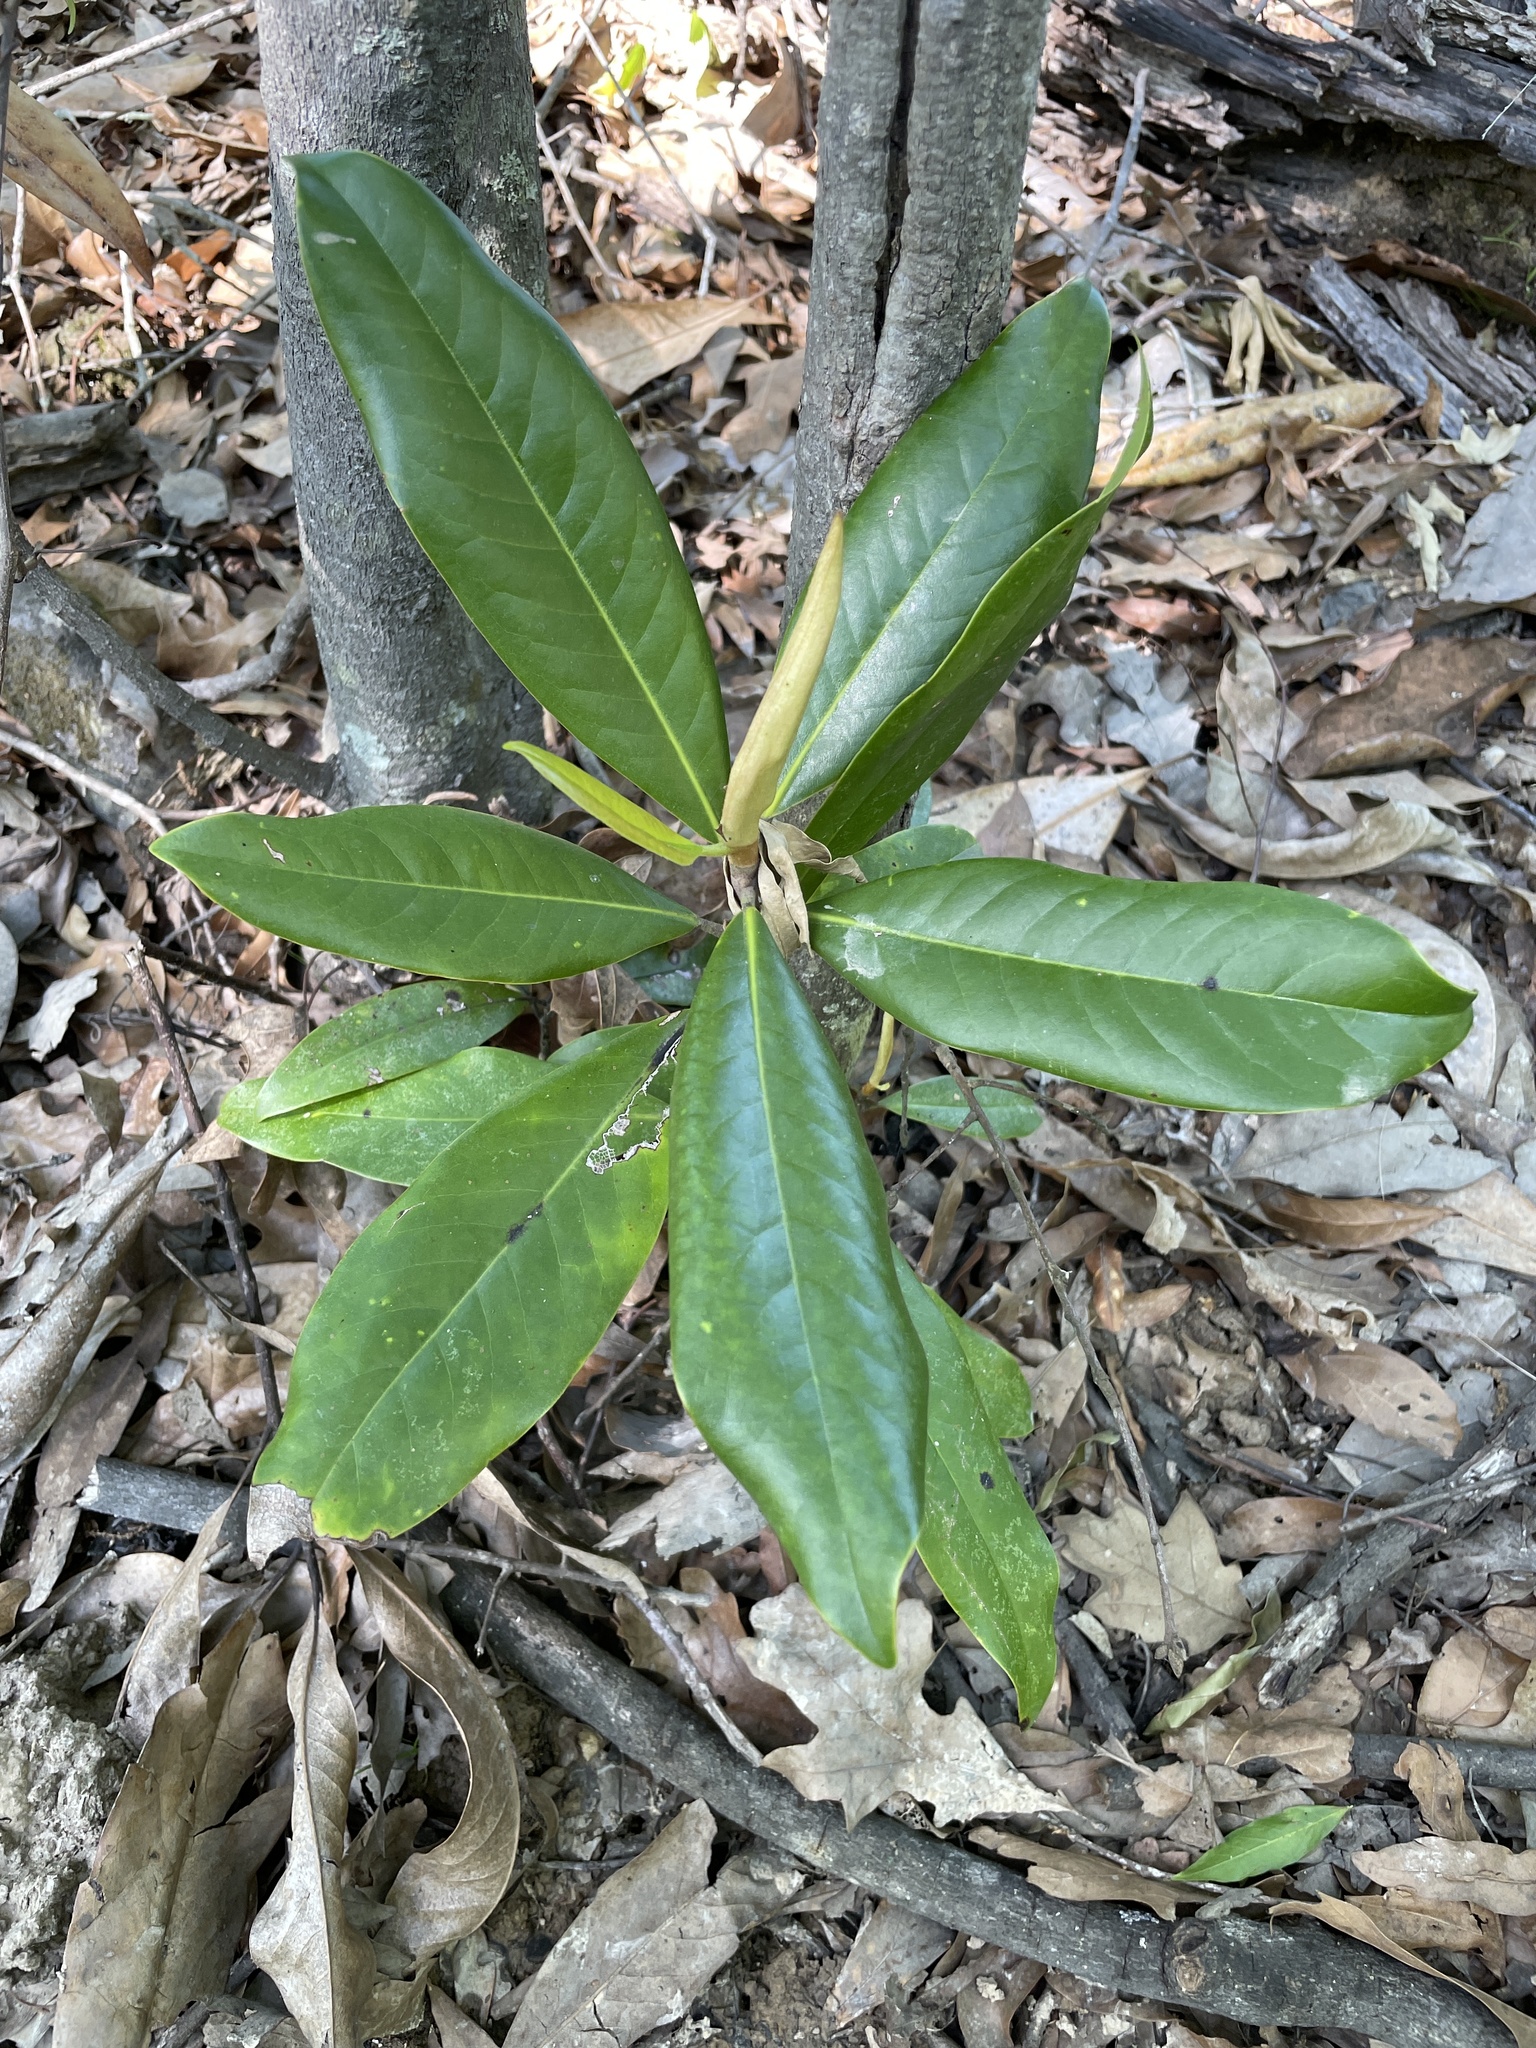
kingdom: Plantae
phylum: Tracheophyta
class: Magnoliopsida
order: Magnoliales
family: Magnoliaceae
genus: Magnolia
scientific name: Magnolia grandiflora
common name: Southern magnolia
